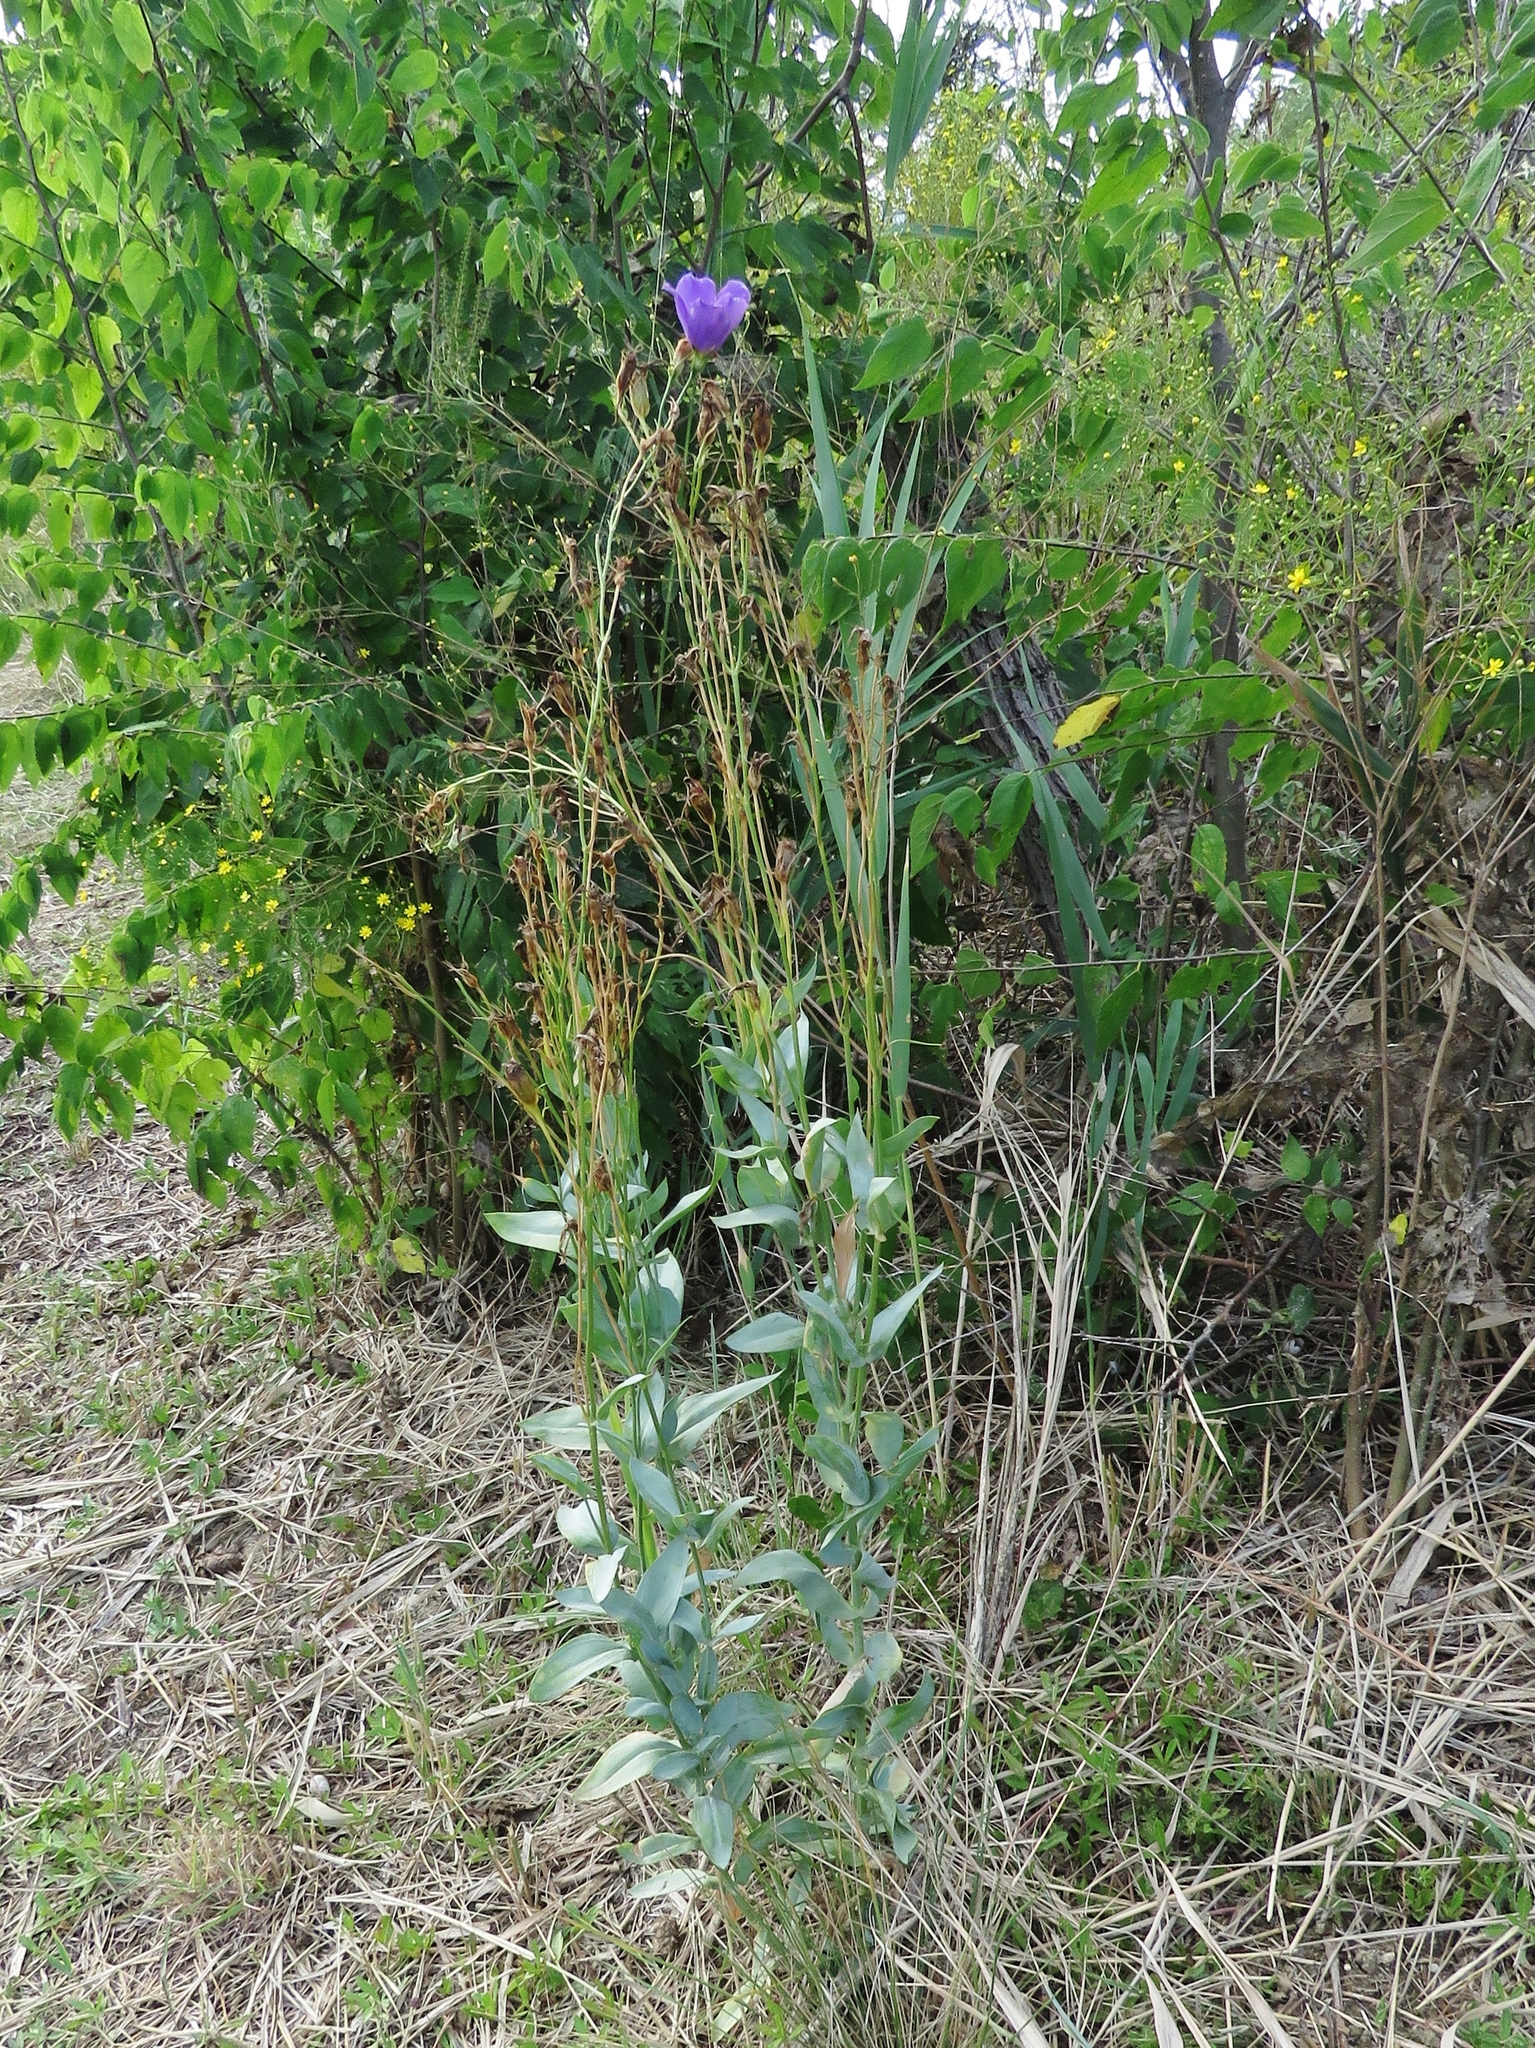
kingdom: Plantae
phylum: Tracheophyta
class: Magnoliopsida
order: Gentianales
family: Gentianaceae
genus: Eustoma
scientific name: Eustoma russellianum
